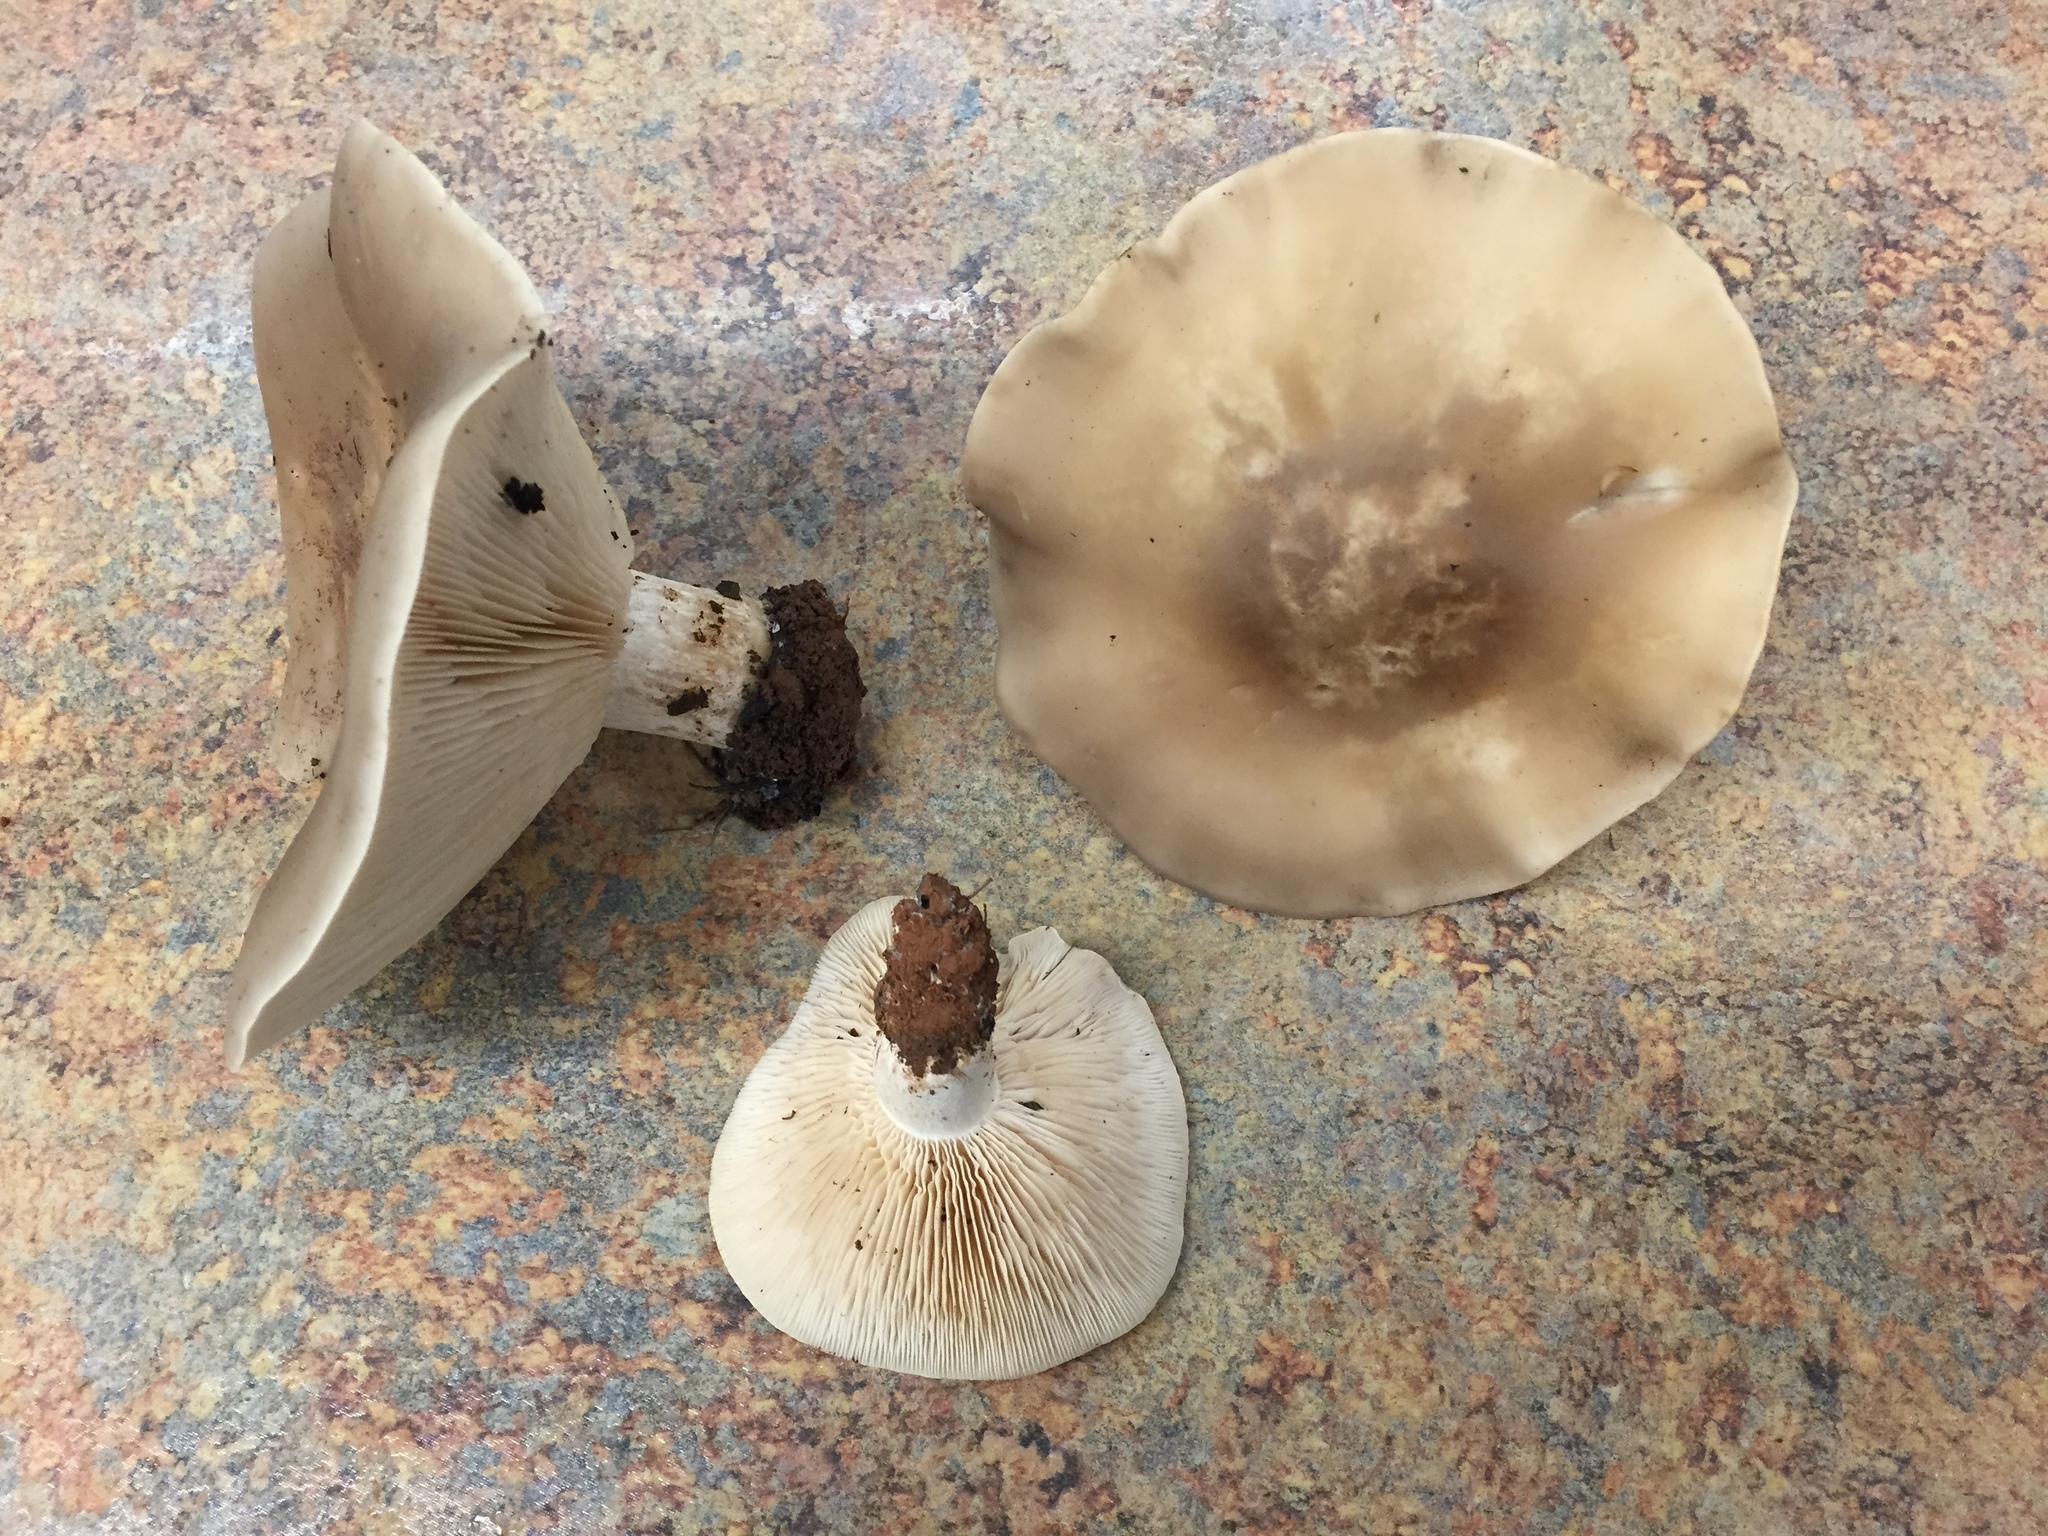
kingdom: Fungi
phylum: Basidiomycota
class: Agaricomycetes
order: Agaricales
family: Tricholomataceae
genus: Collybia
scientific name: Collybia
